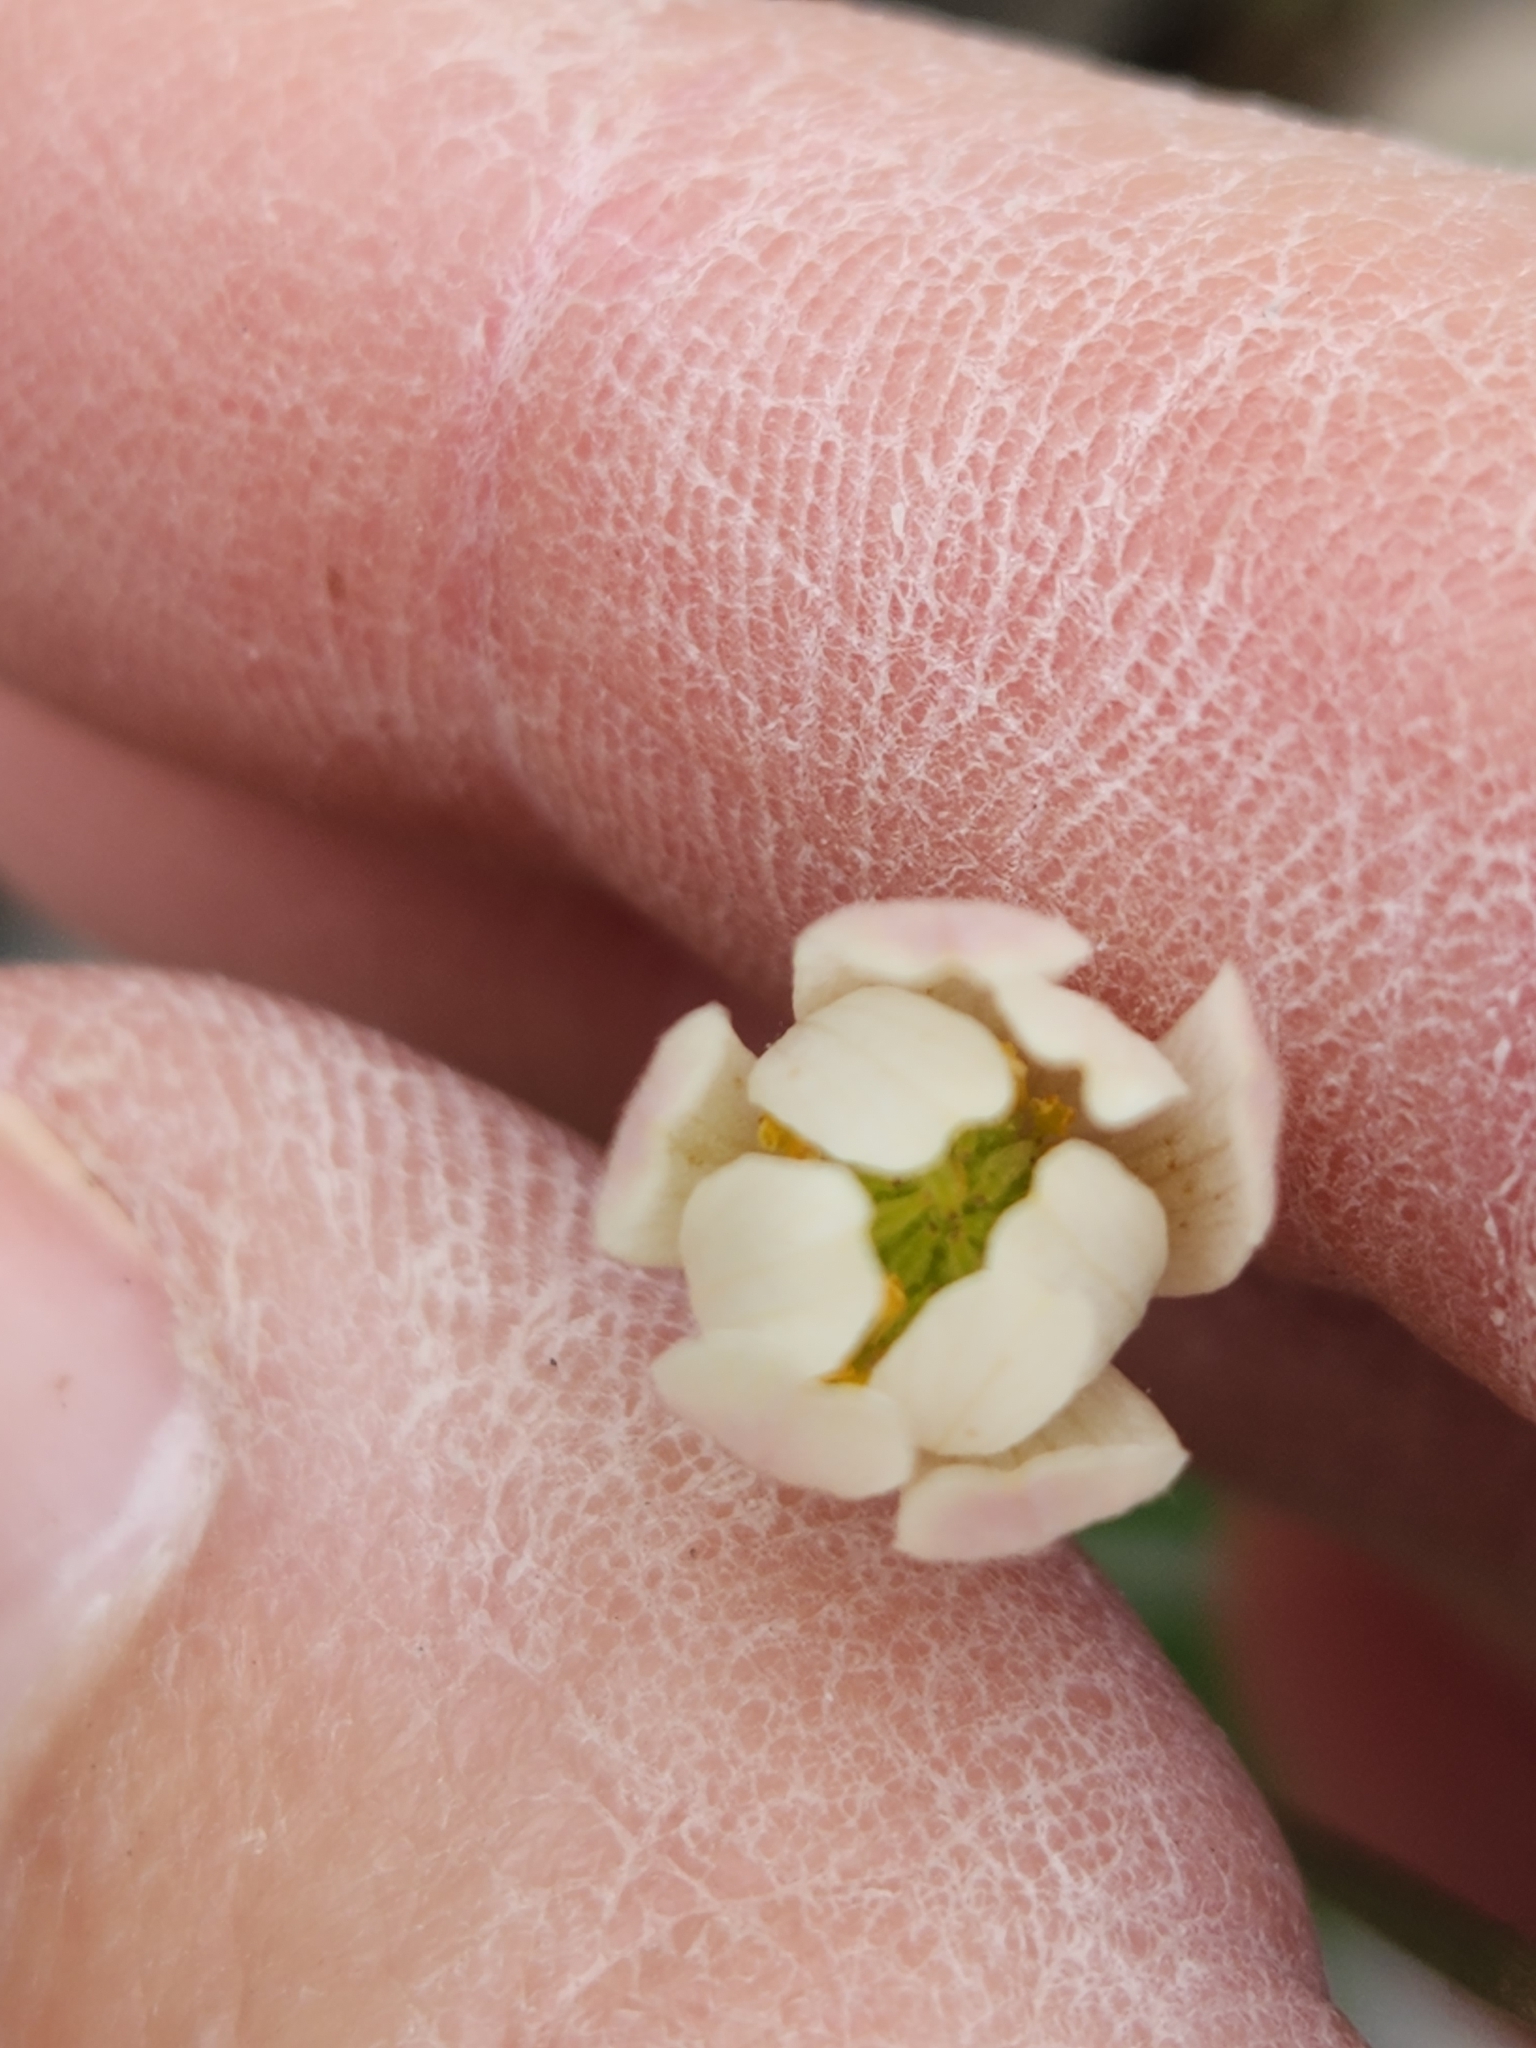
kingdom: Plantae
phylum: Tracheophyta
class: Magnoliopsida
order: Ranunculales
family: Ranunculaceae
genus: Anemone
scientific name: Anemone edwardsiana
